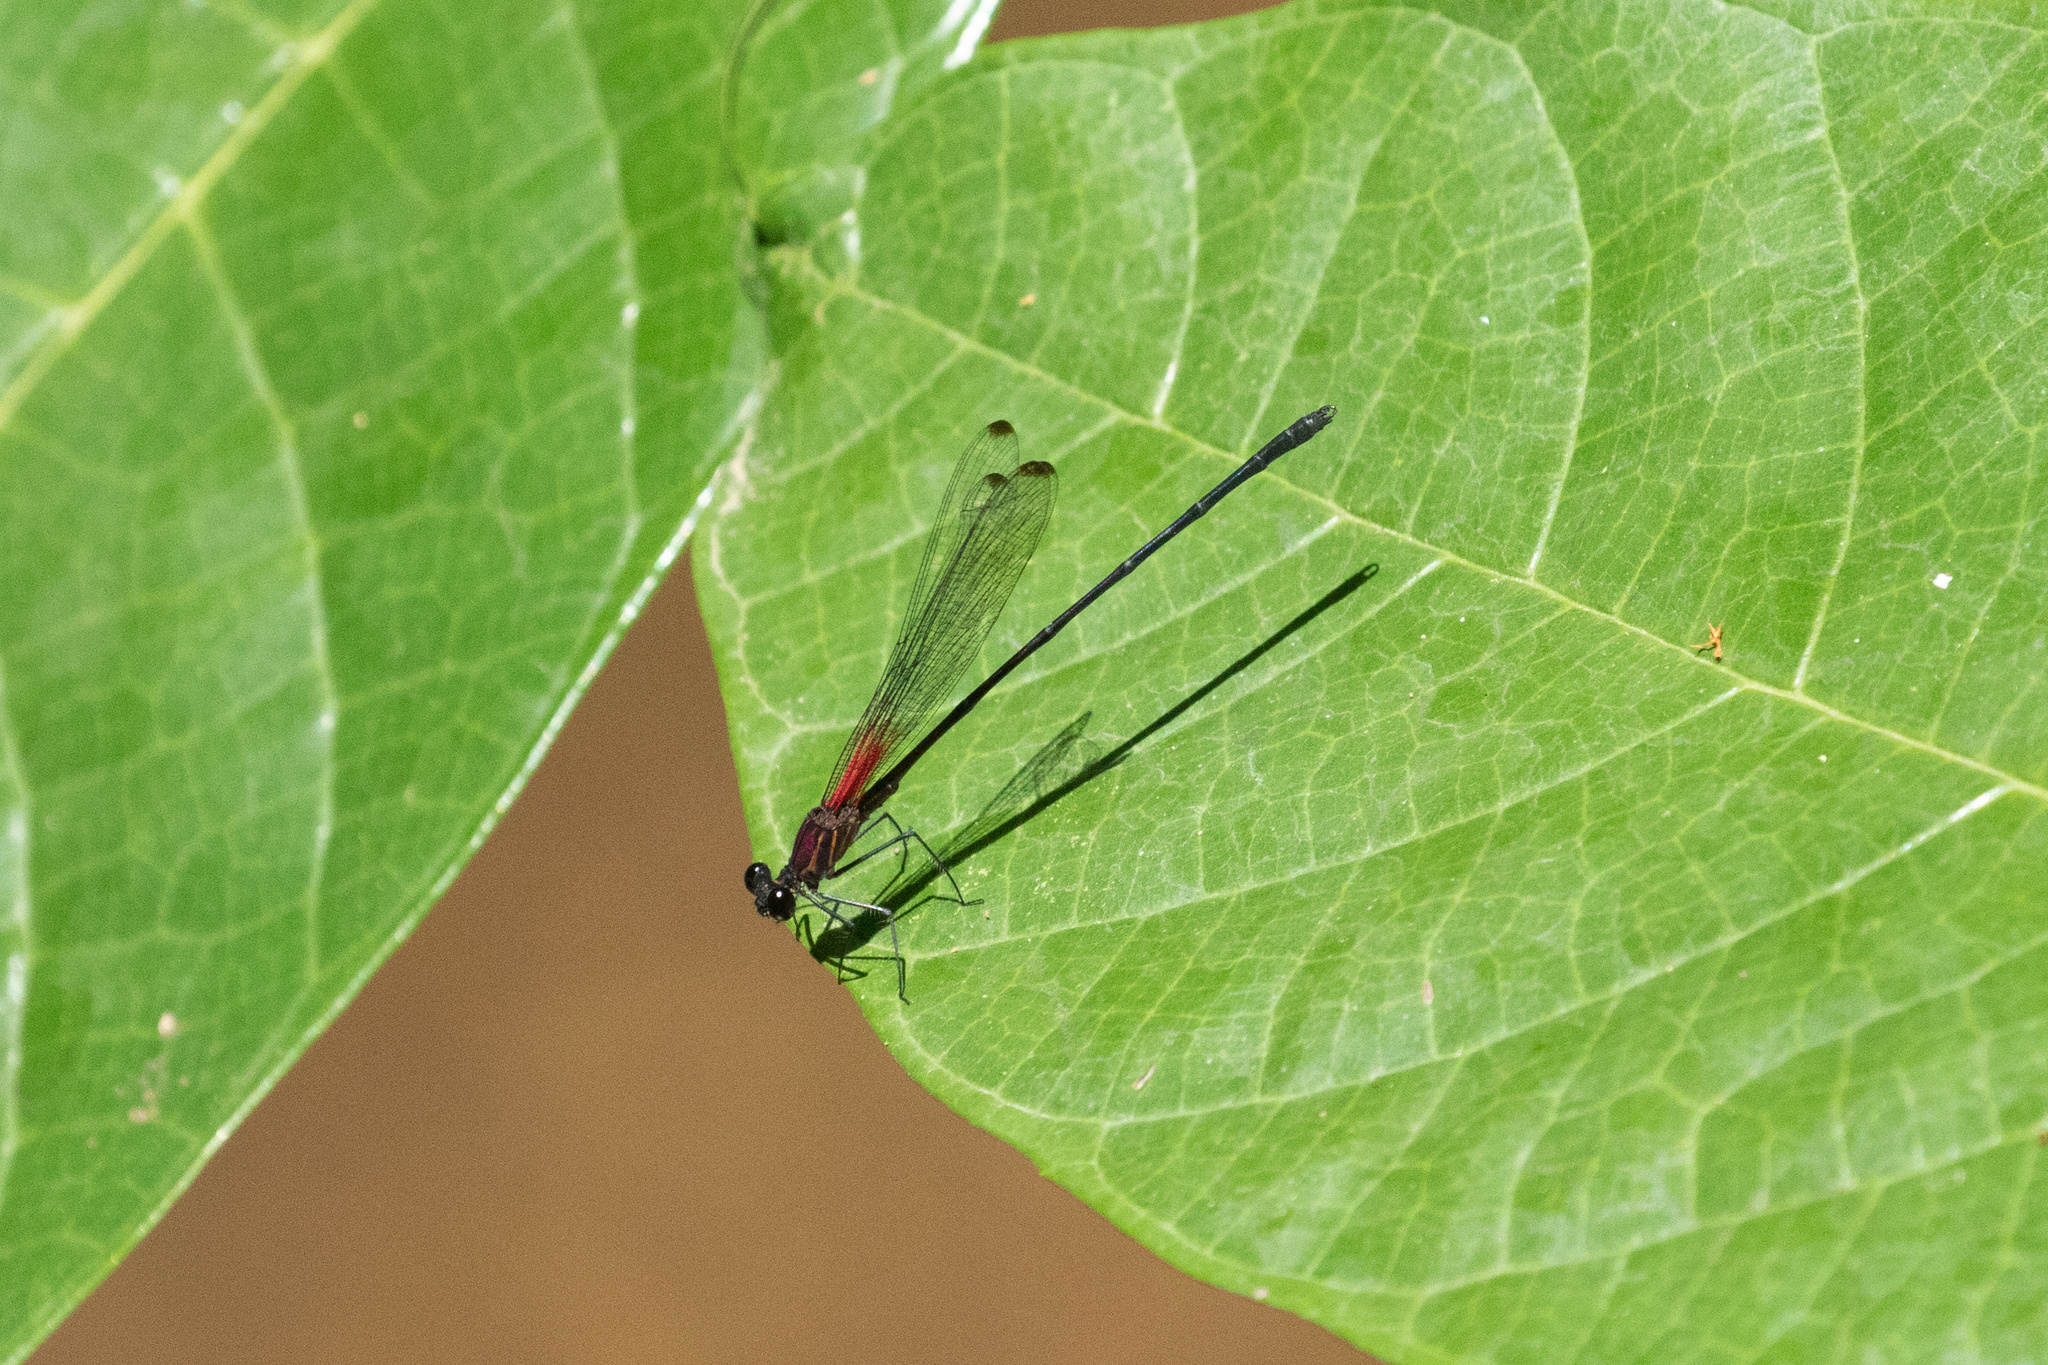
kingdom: Animalia
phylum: Arthropoda
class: Insecta
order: Odonata
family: Calopterygidae
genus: Hetaerina
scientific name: Hetaerina fuscoguttata
